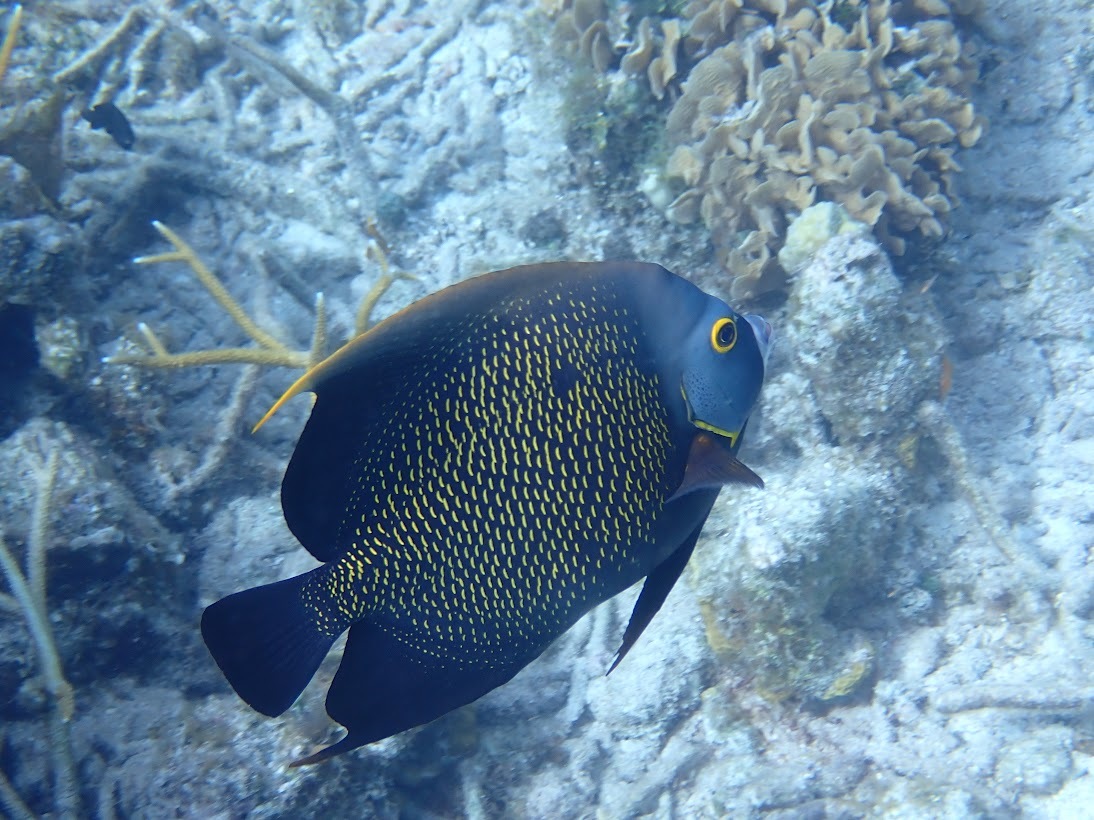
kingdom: Animalia
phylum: Chordata
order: Perciformes
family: Pomacanthidae
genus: Pomacanthus
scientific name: Pomacanthus paru
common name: French angelfish
